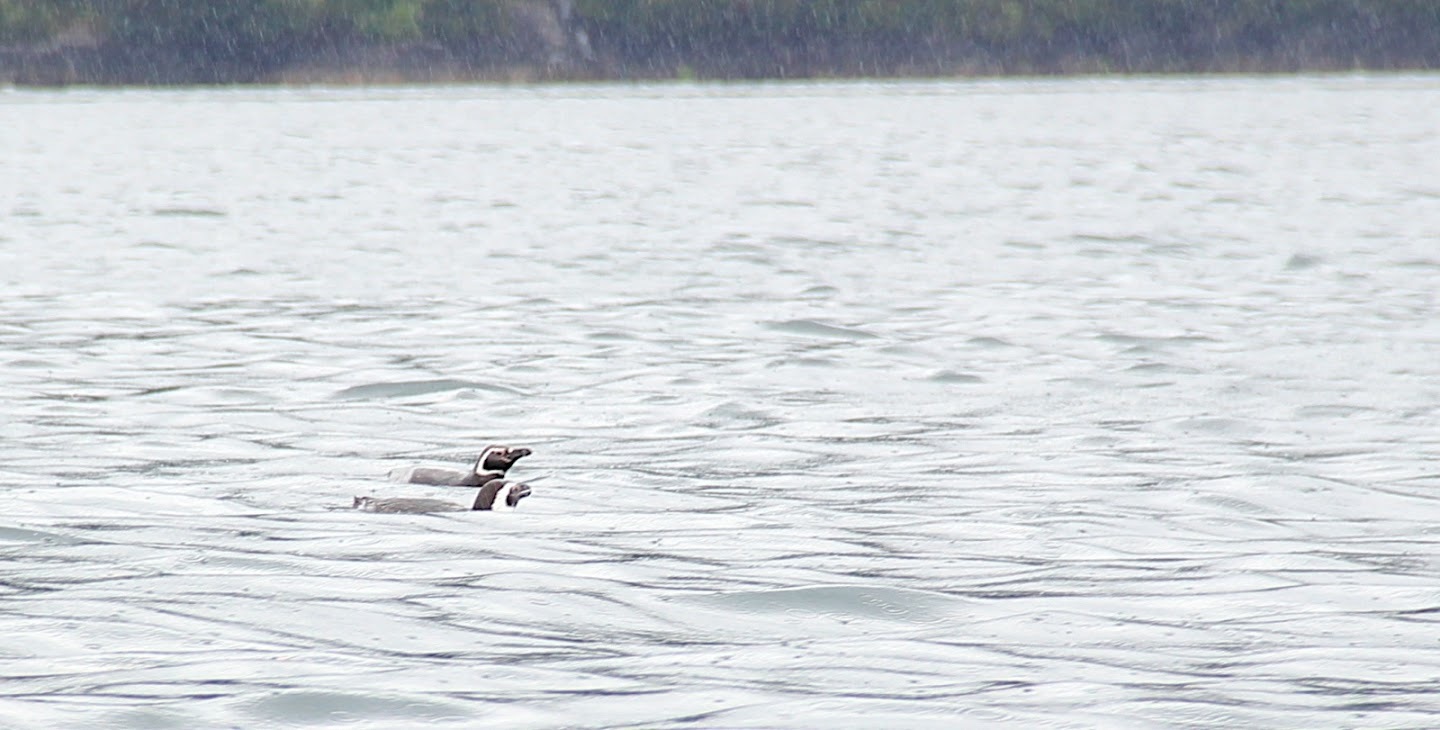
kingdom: Animalia
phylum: Chordata
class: Aves
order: Sphenisciformes
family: Spheniscidae
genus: Spheniscus
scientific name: Spheniscus magellanicus
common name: Magellanic penguin
